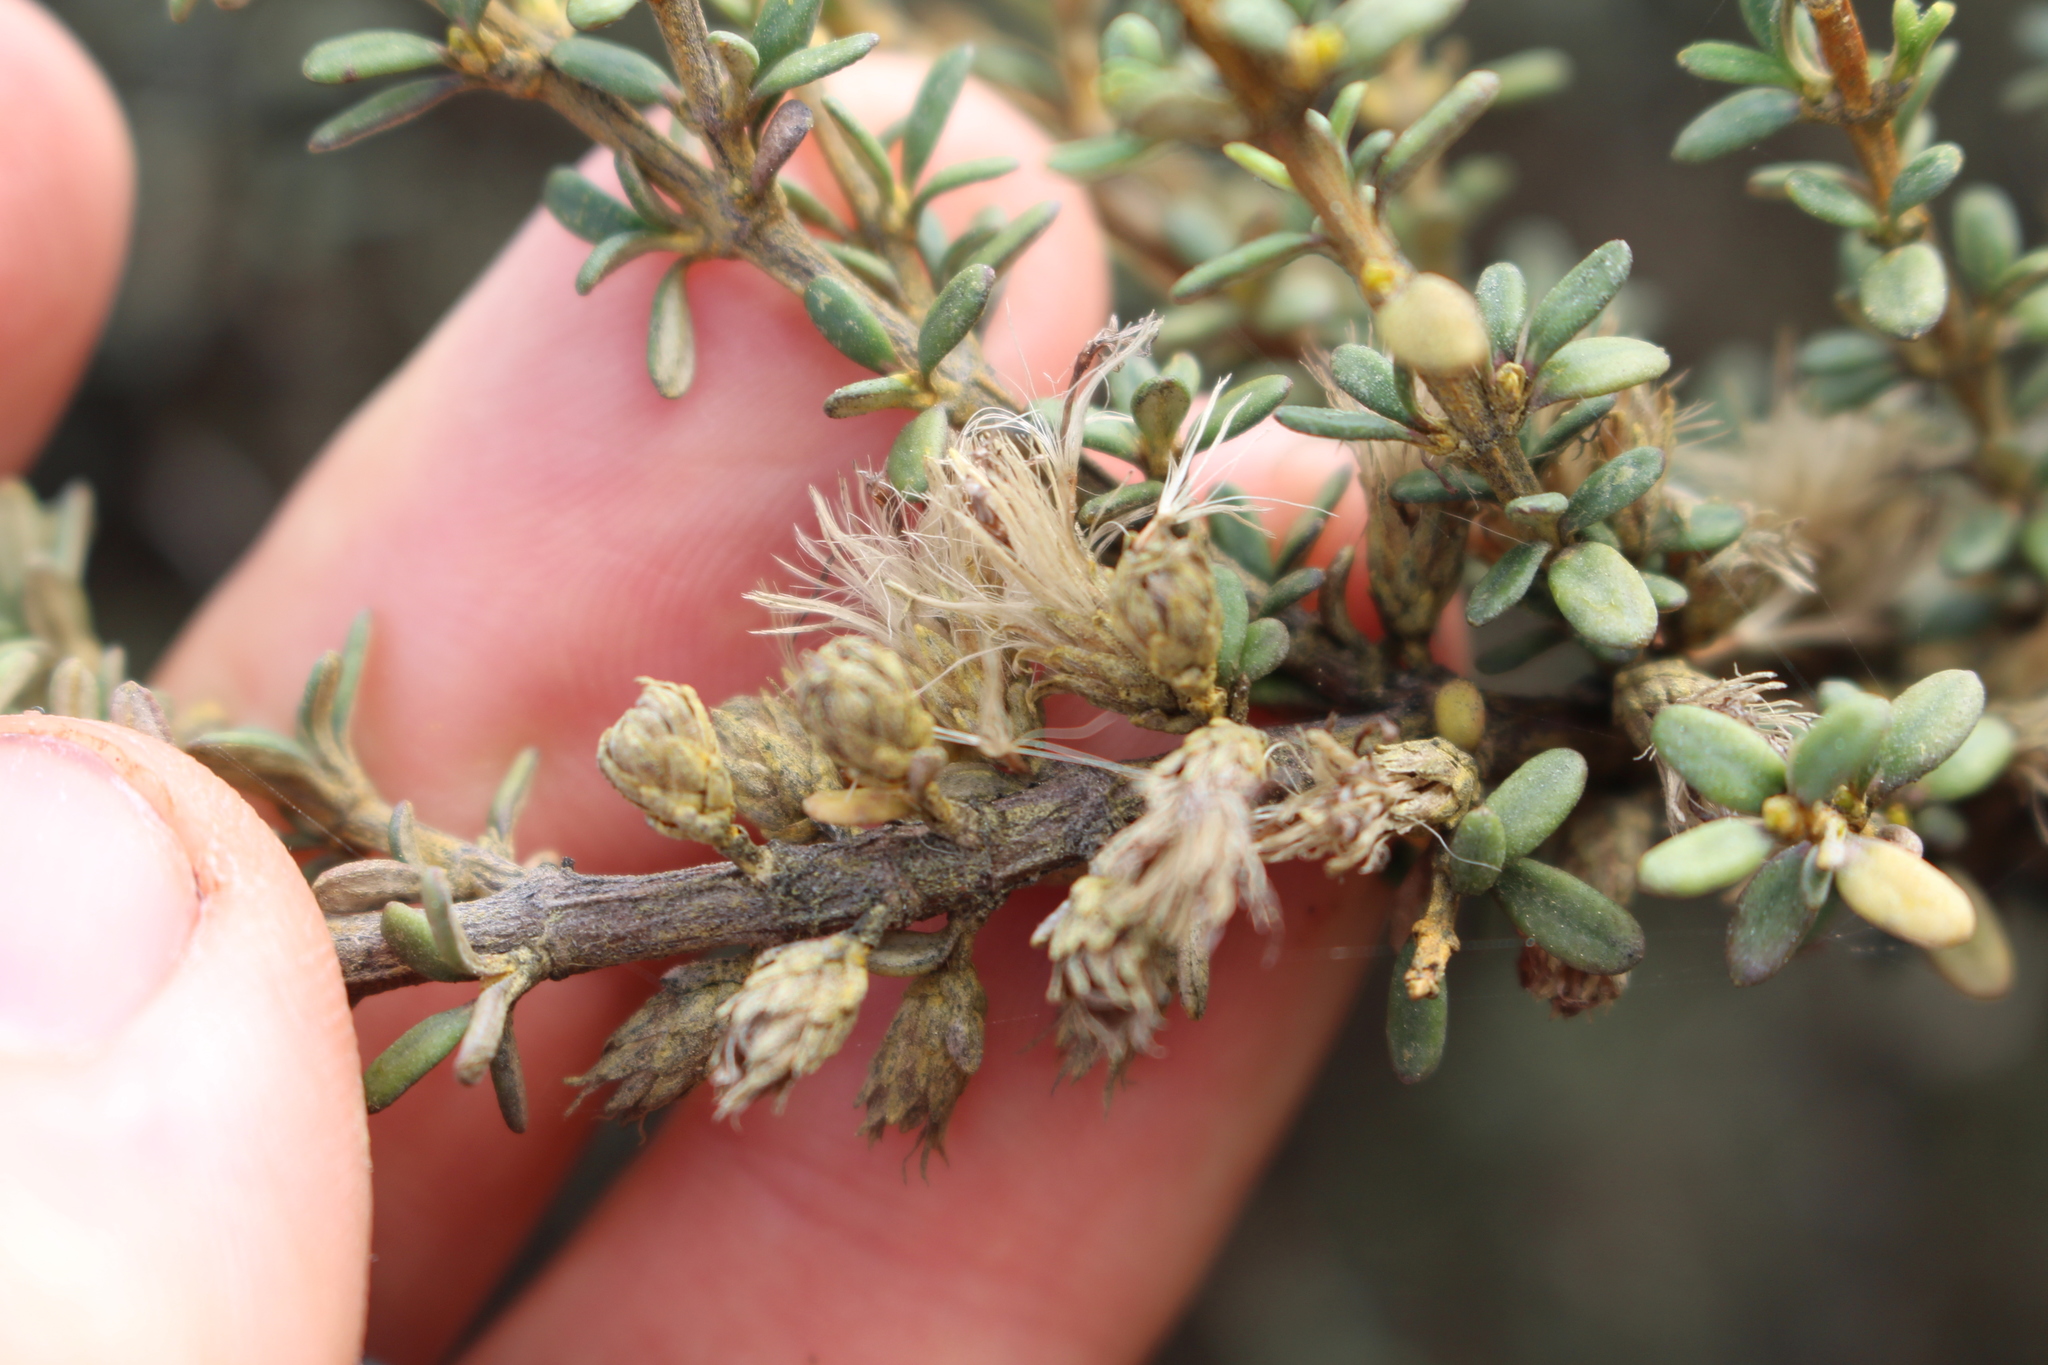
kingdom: Plantae
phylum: Tracheophyta
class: Magnoliopsida
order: Asterales
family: Asteraceae
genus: Olearia
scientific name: Olearia solandri
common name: Coastal daisybush
